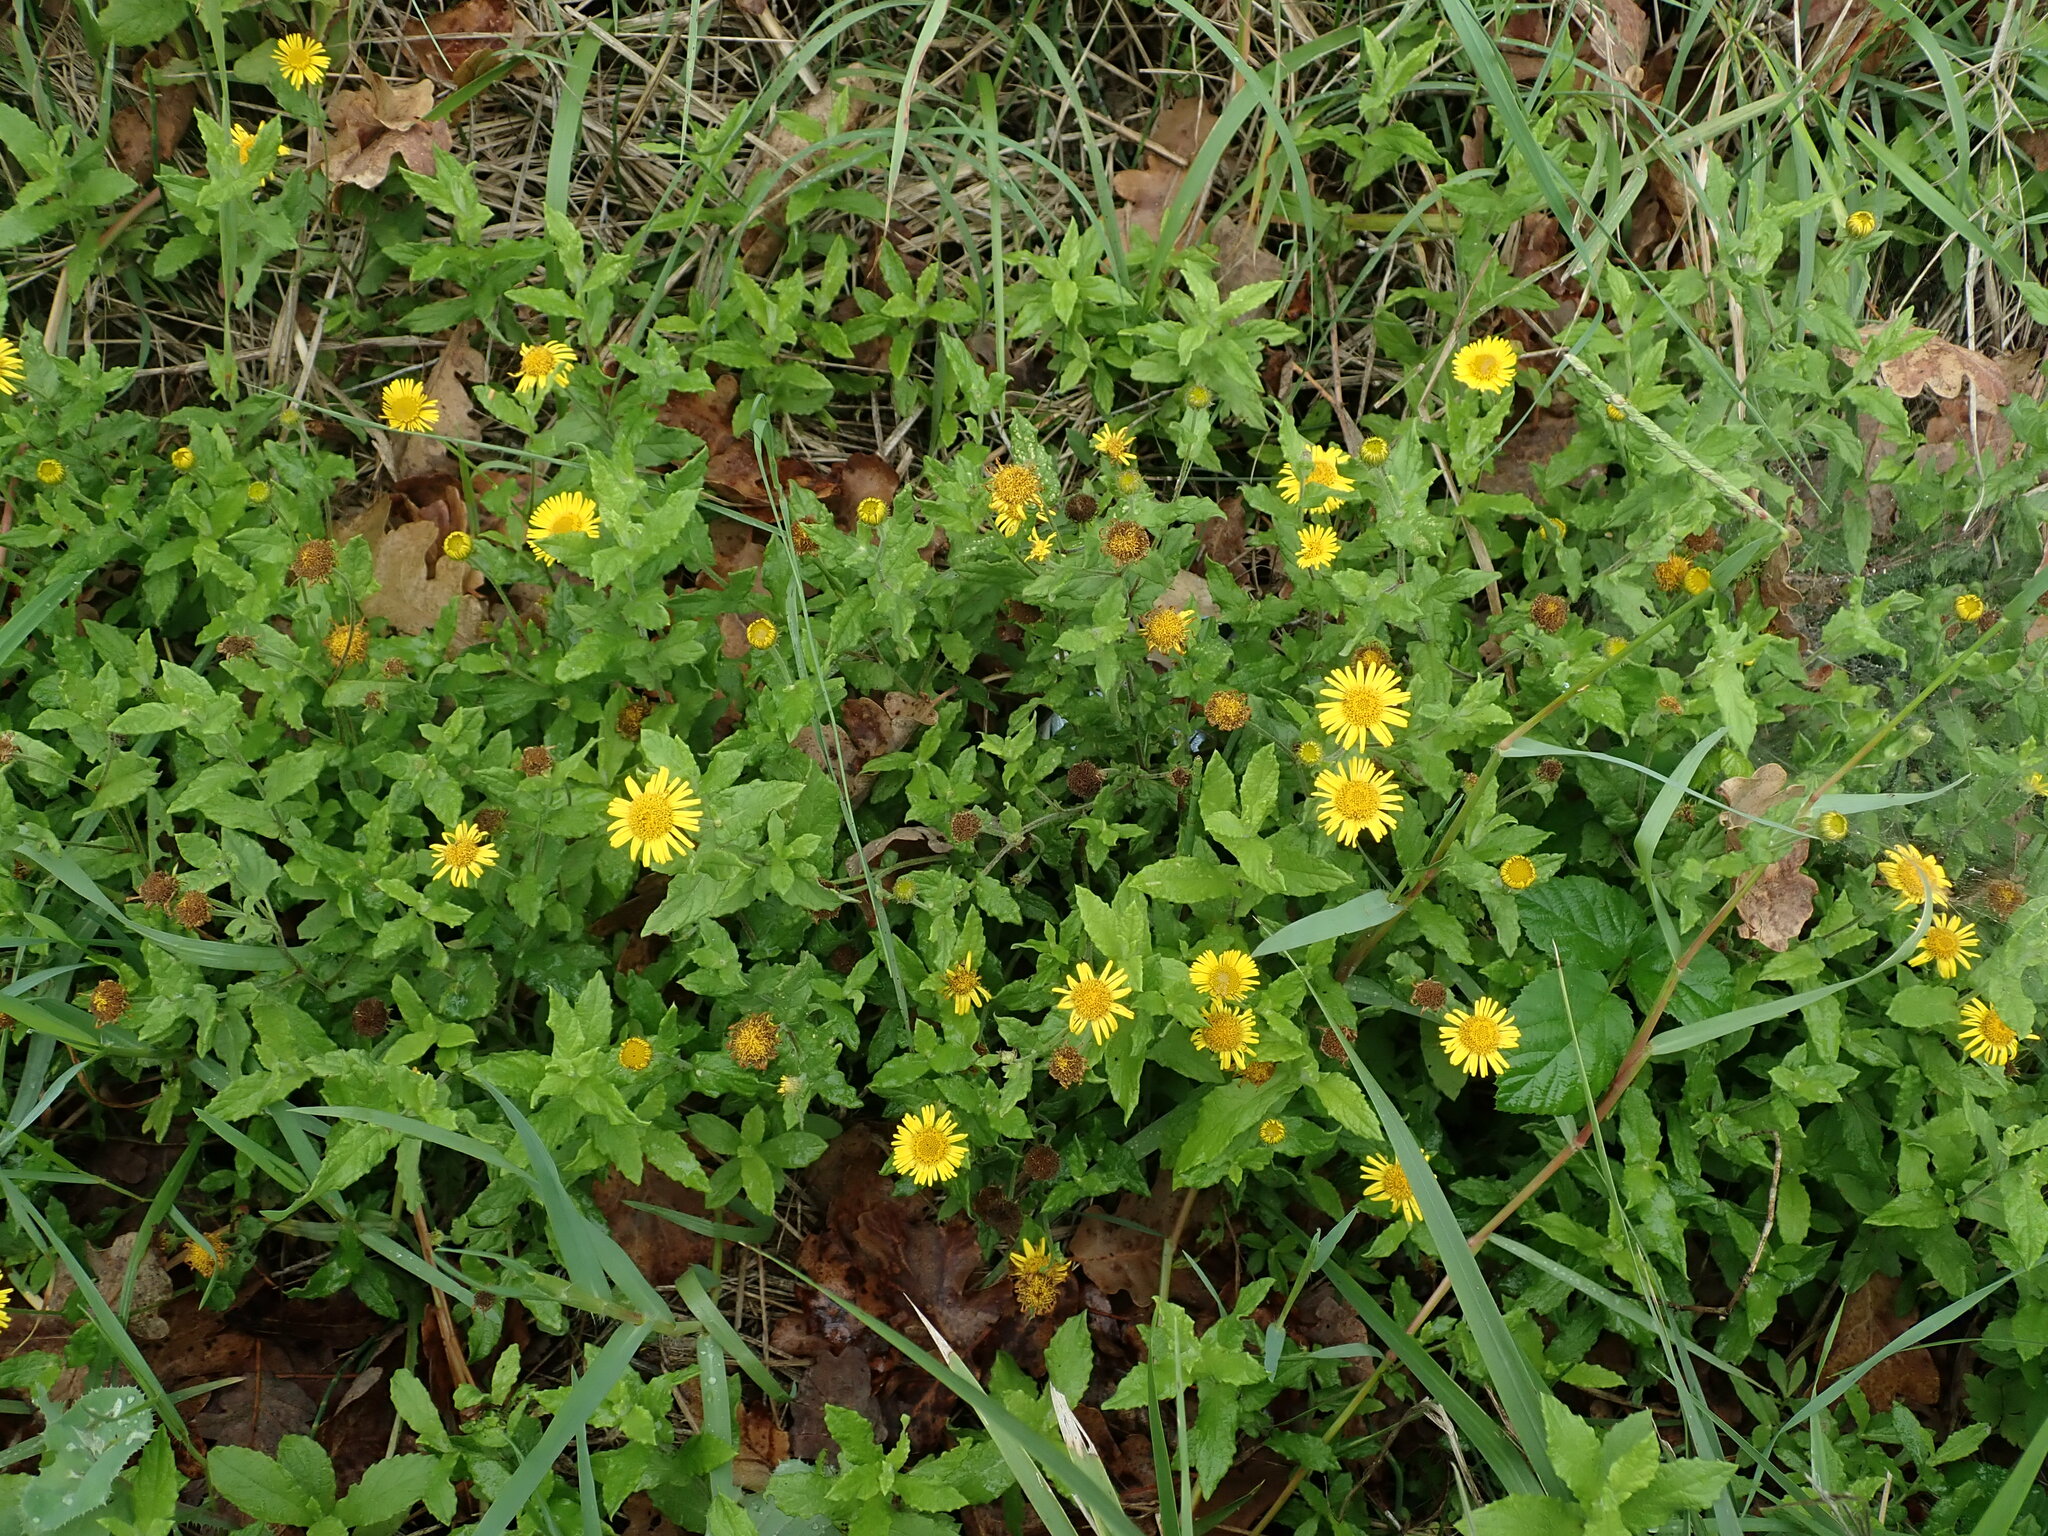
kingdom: Plantae
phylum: Tracheophyta
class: Magnoliopsida
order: Asterales
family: Asteraceae
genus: Pulicaria
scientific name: Pulicaria dysenterica
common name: Common fleabane
